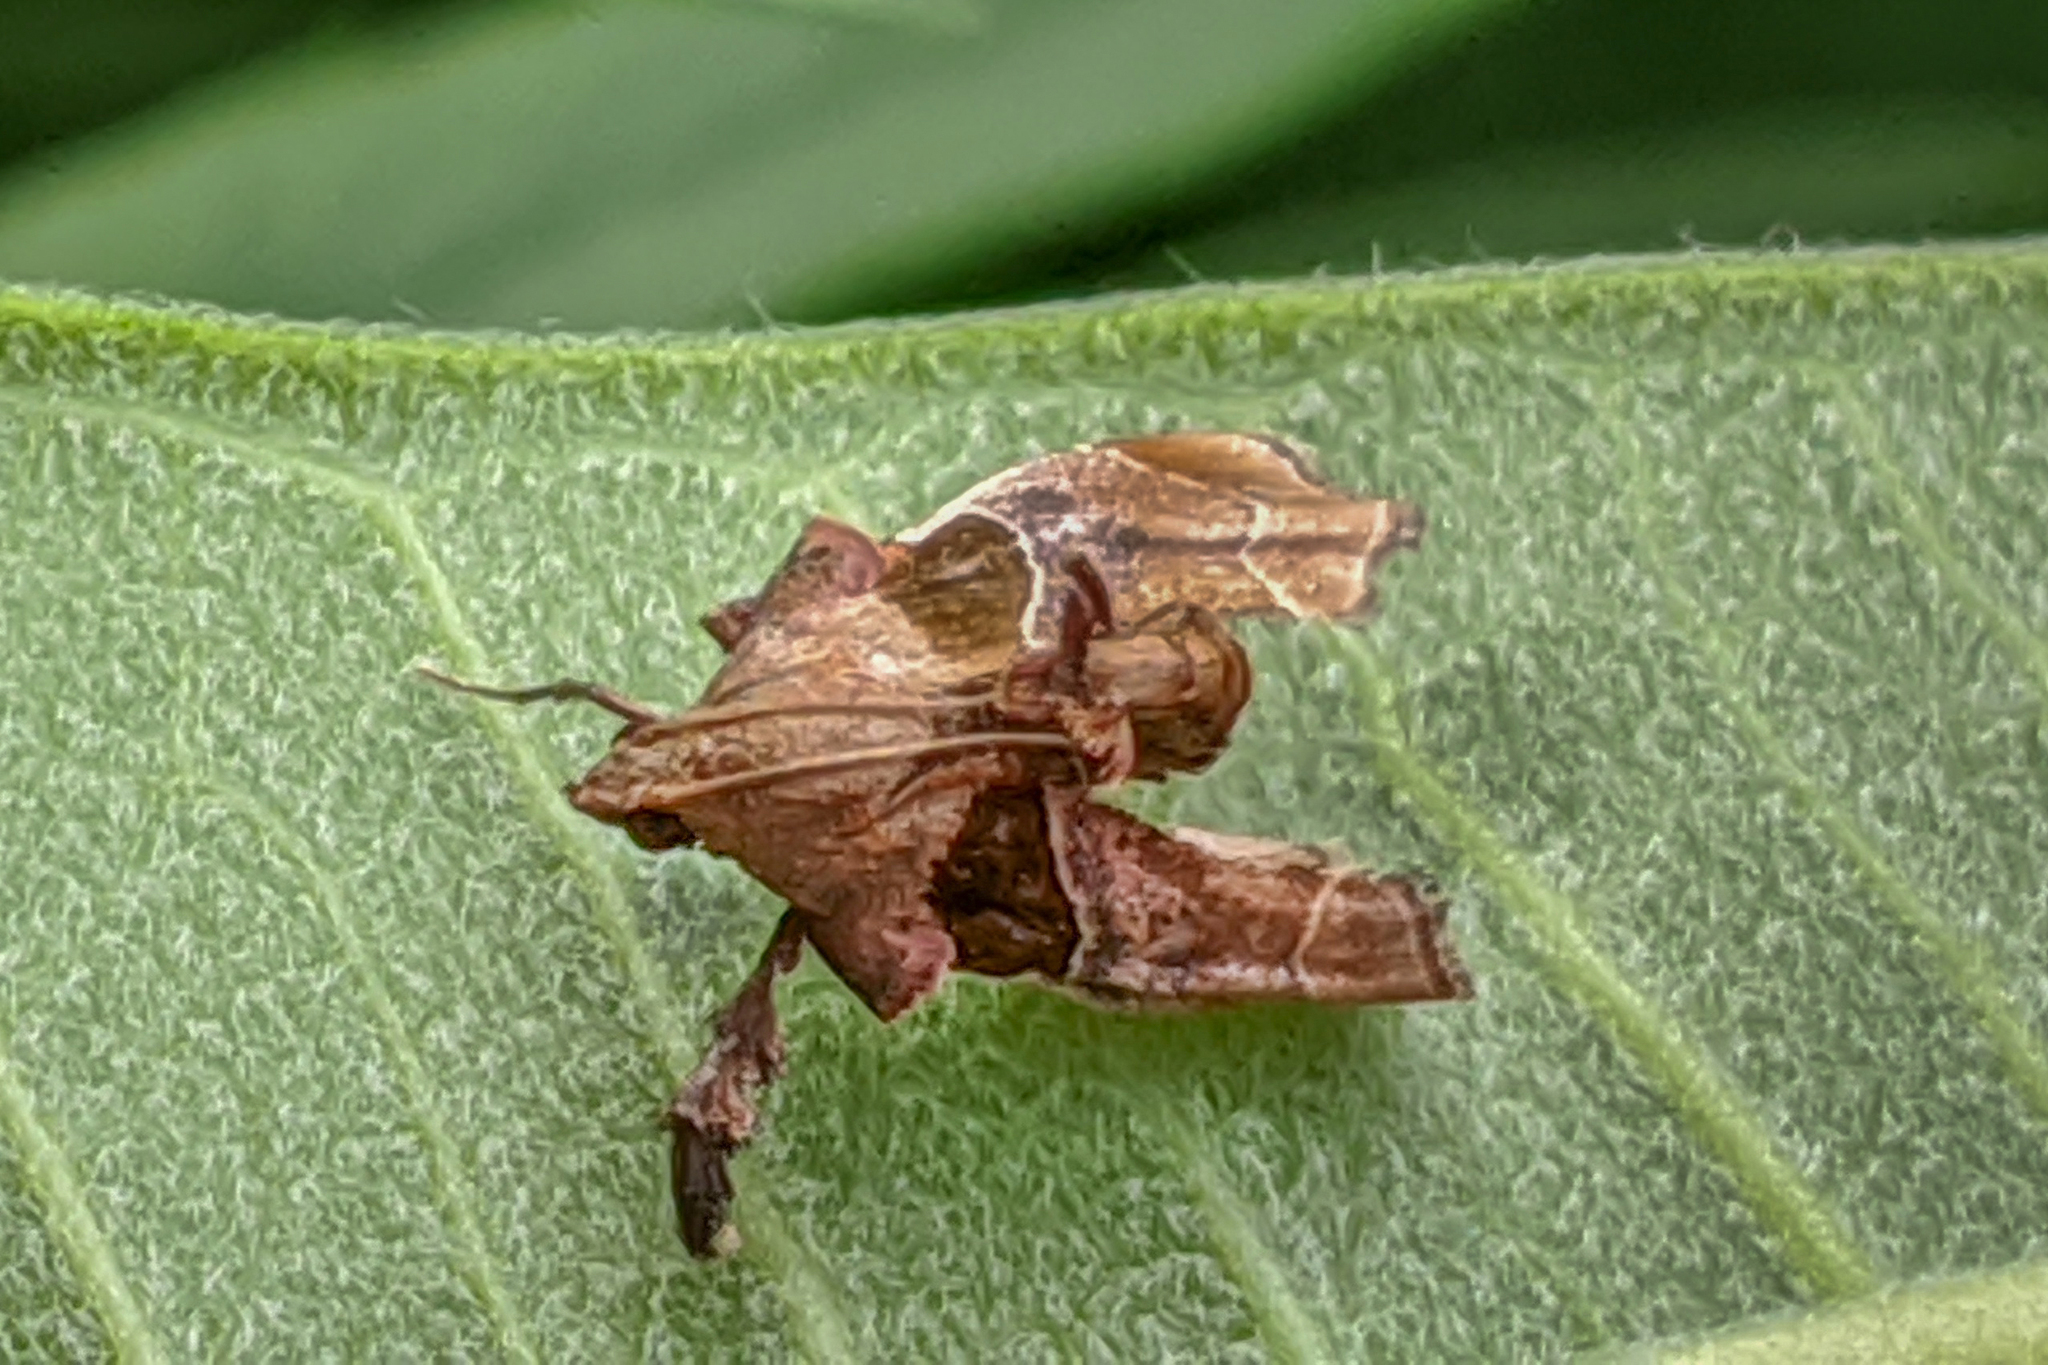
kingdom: Animalia
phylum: Arthropoda
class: Insecta
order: Lepidoptera
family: Pyralidae
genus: Tosale
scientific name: Tosale oviplagalis
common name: Dimorphic tosale moth
